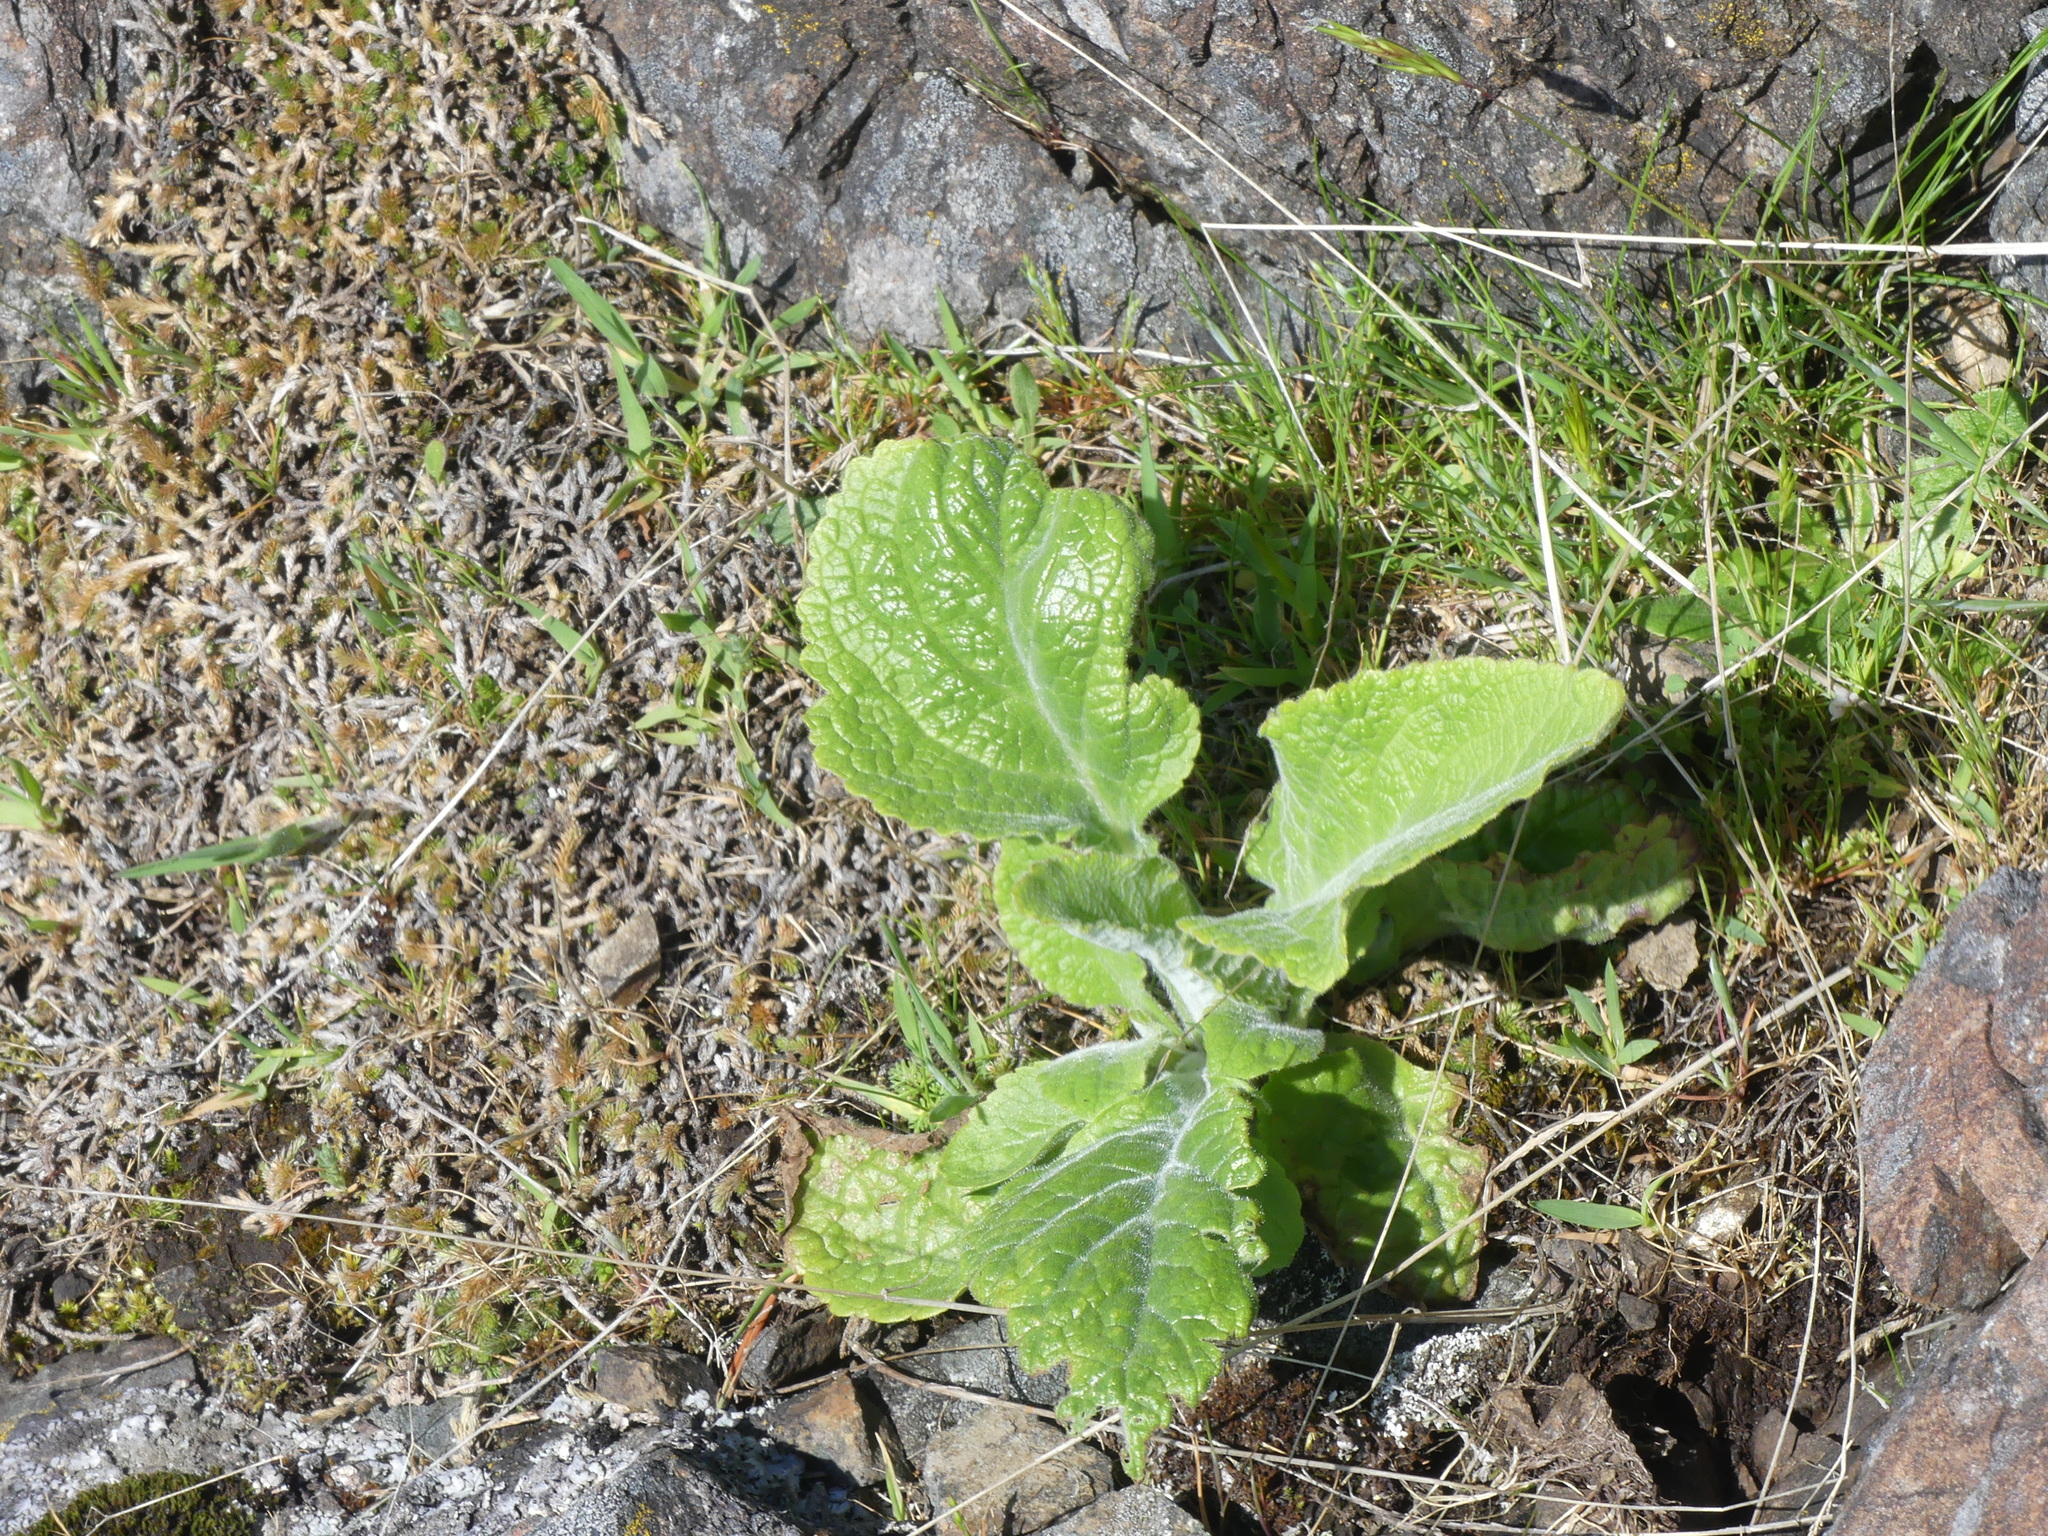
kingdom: Plantae
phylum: Tracheophyta
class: Magnoliopsida
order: Lamiales
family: Plantaginaceae
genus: Digitalis
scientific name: Digitalis purpurea
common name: Foxglove
